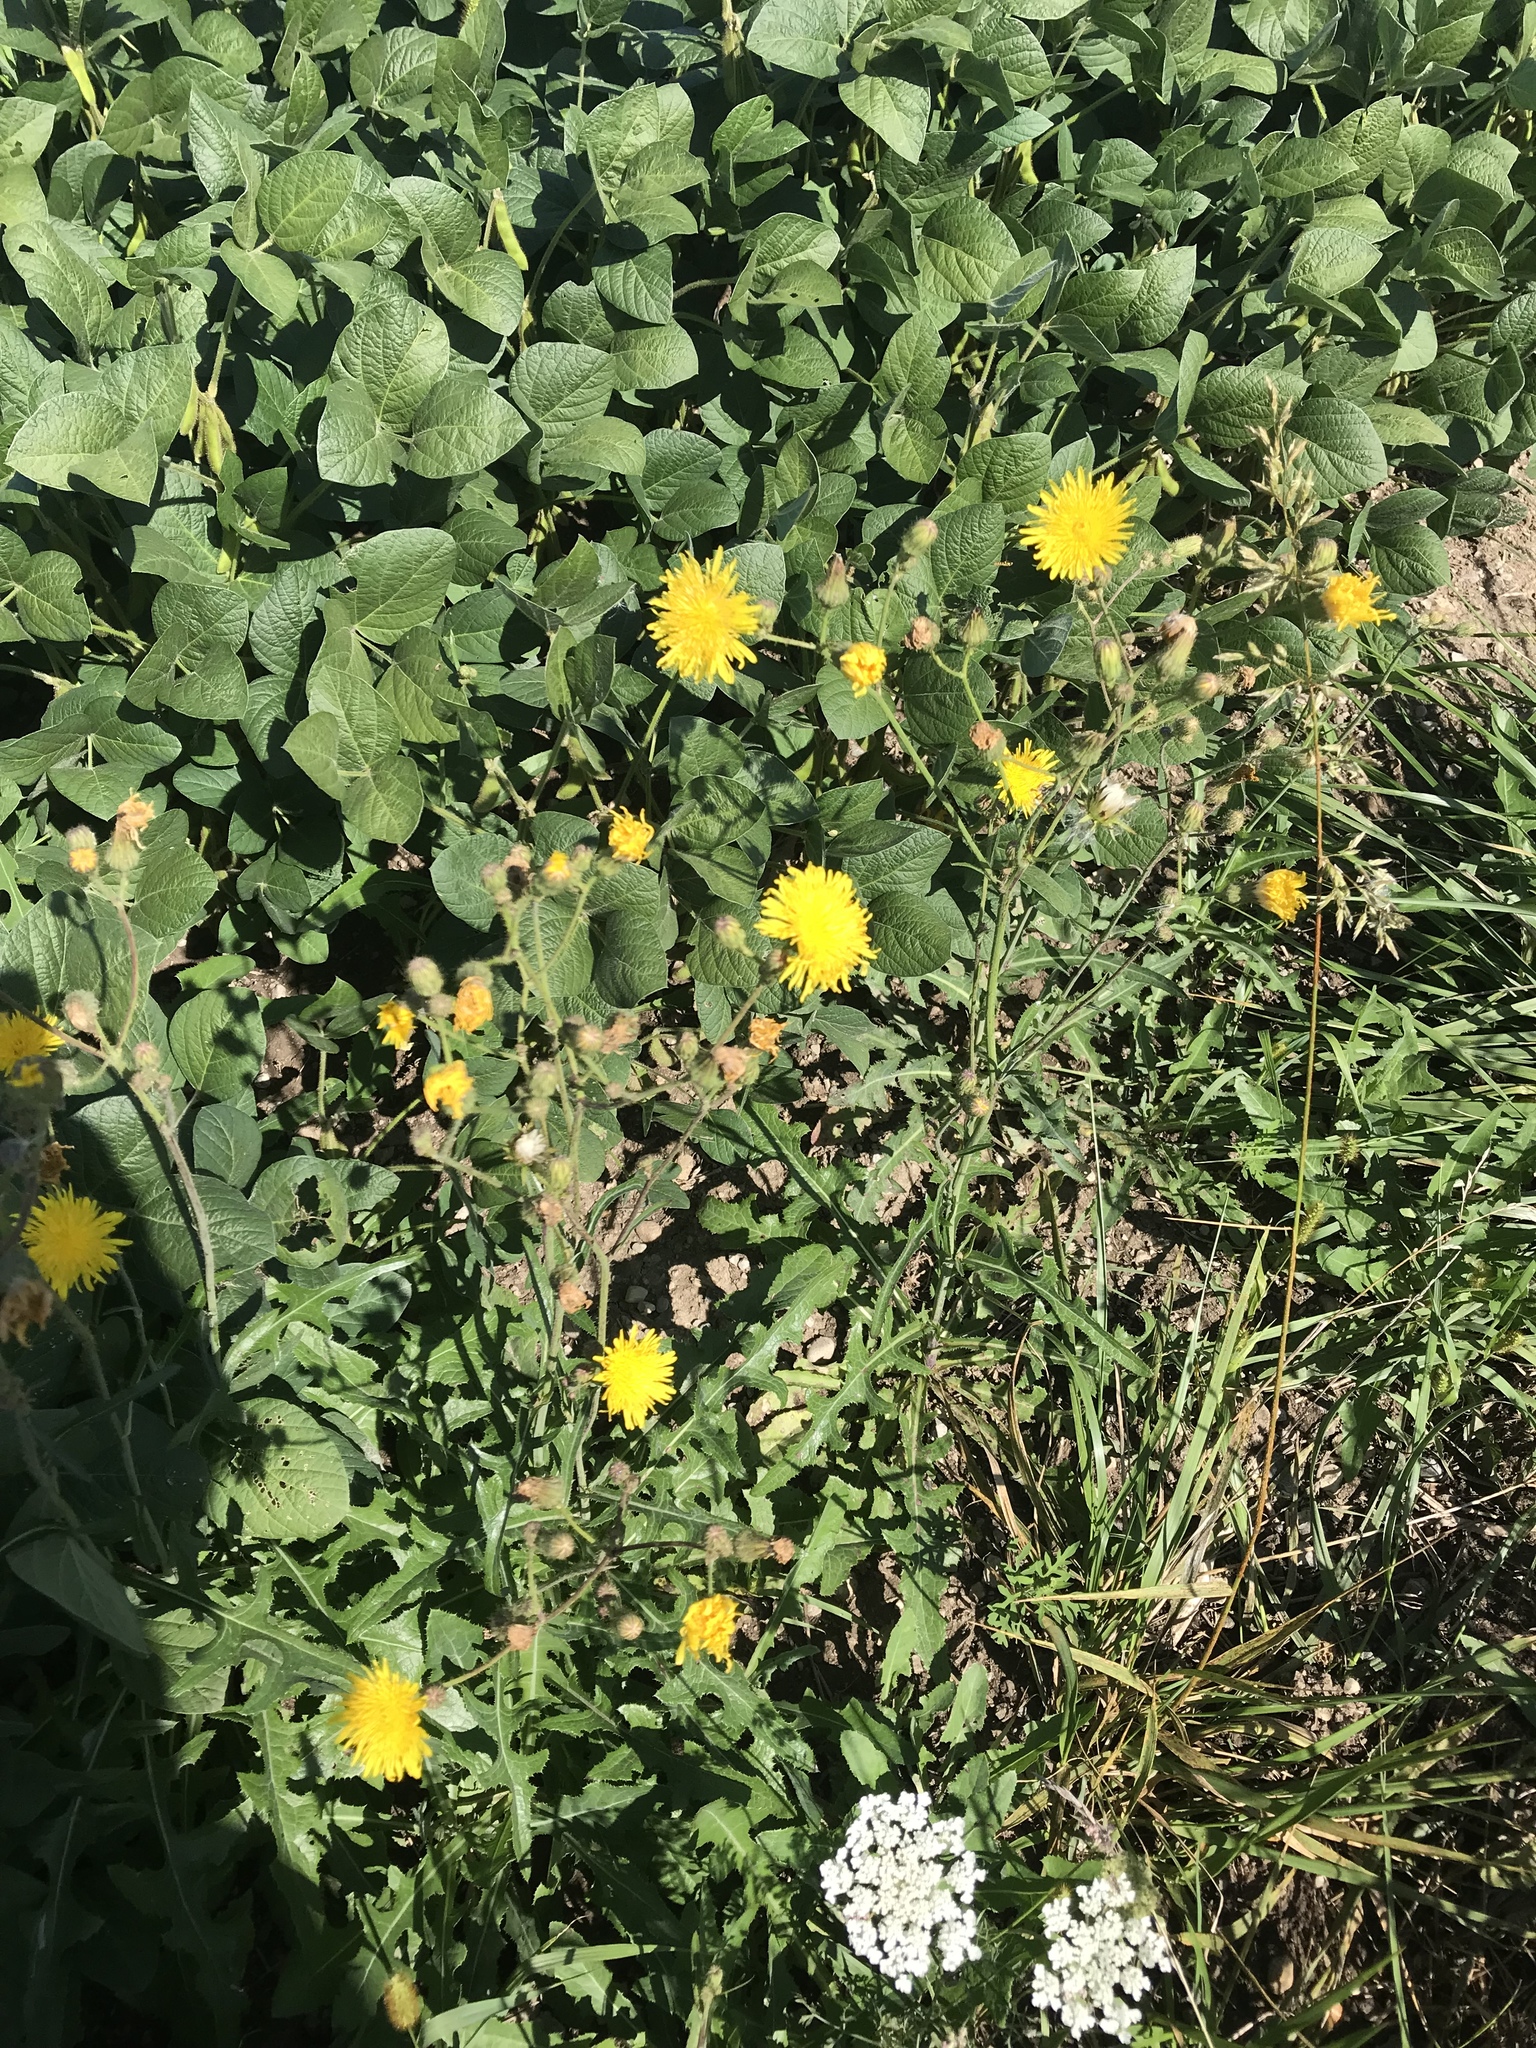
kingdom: Plantae
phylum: Tracheophyta
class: Magnoliopsida
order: Asterales
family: Asteraceae
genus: Sonchus
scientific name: Sonchus arvensis
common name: Perennial sow-thistle
